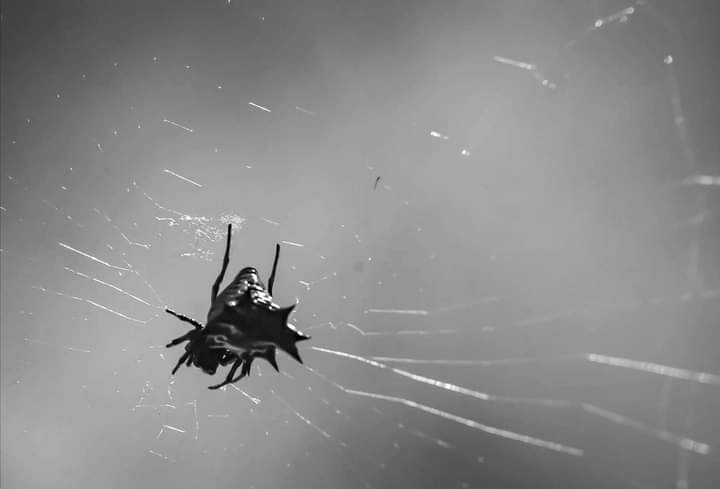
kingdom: Animalia
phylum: Arthropoda
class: Arachnida
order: Araneae
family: Araneidae
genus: Micrathena
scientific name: Micrathena gracilis
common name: Orb weavers
